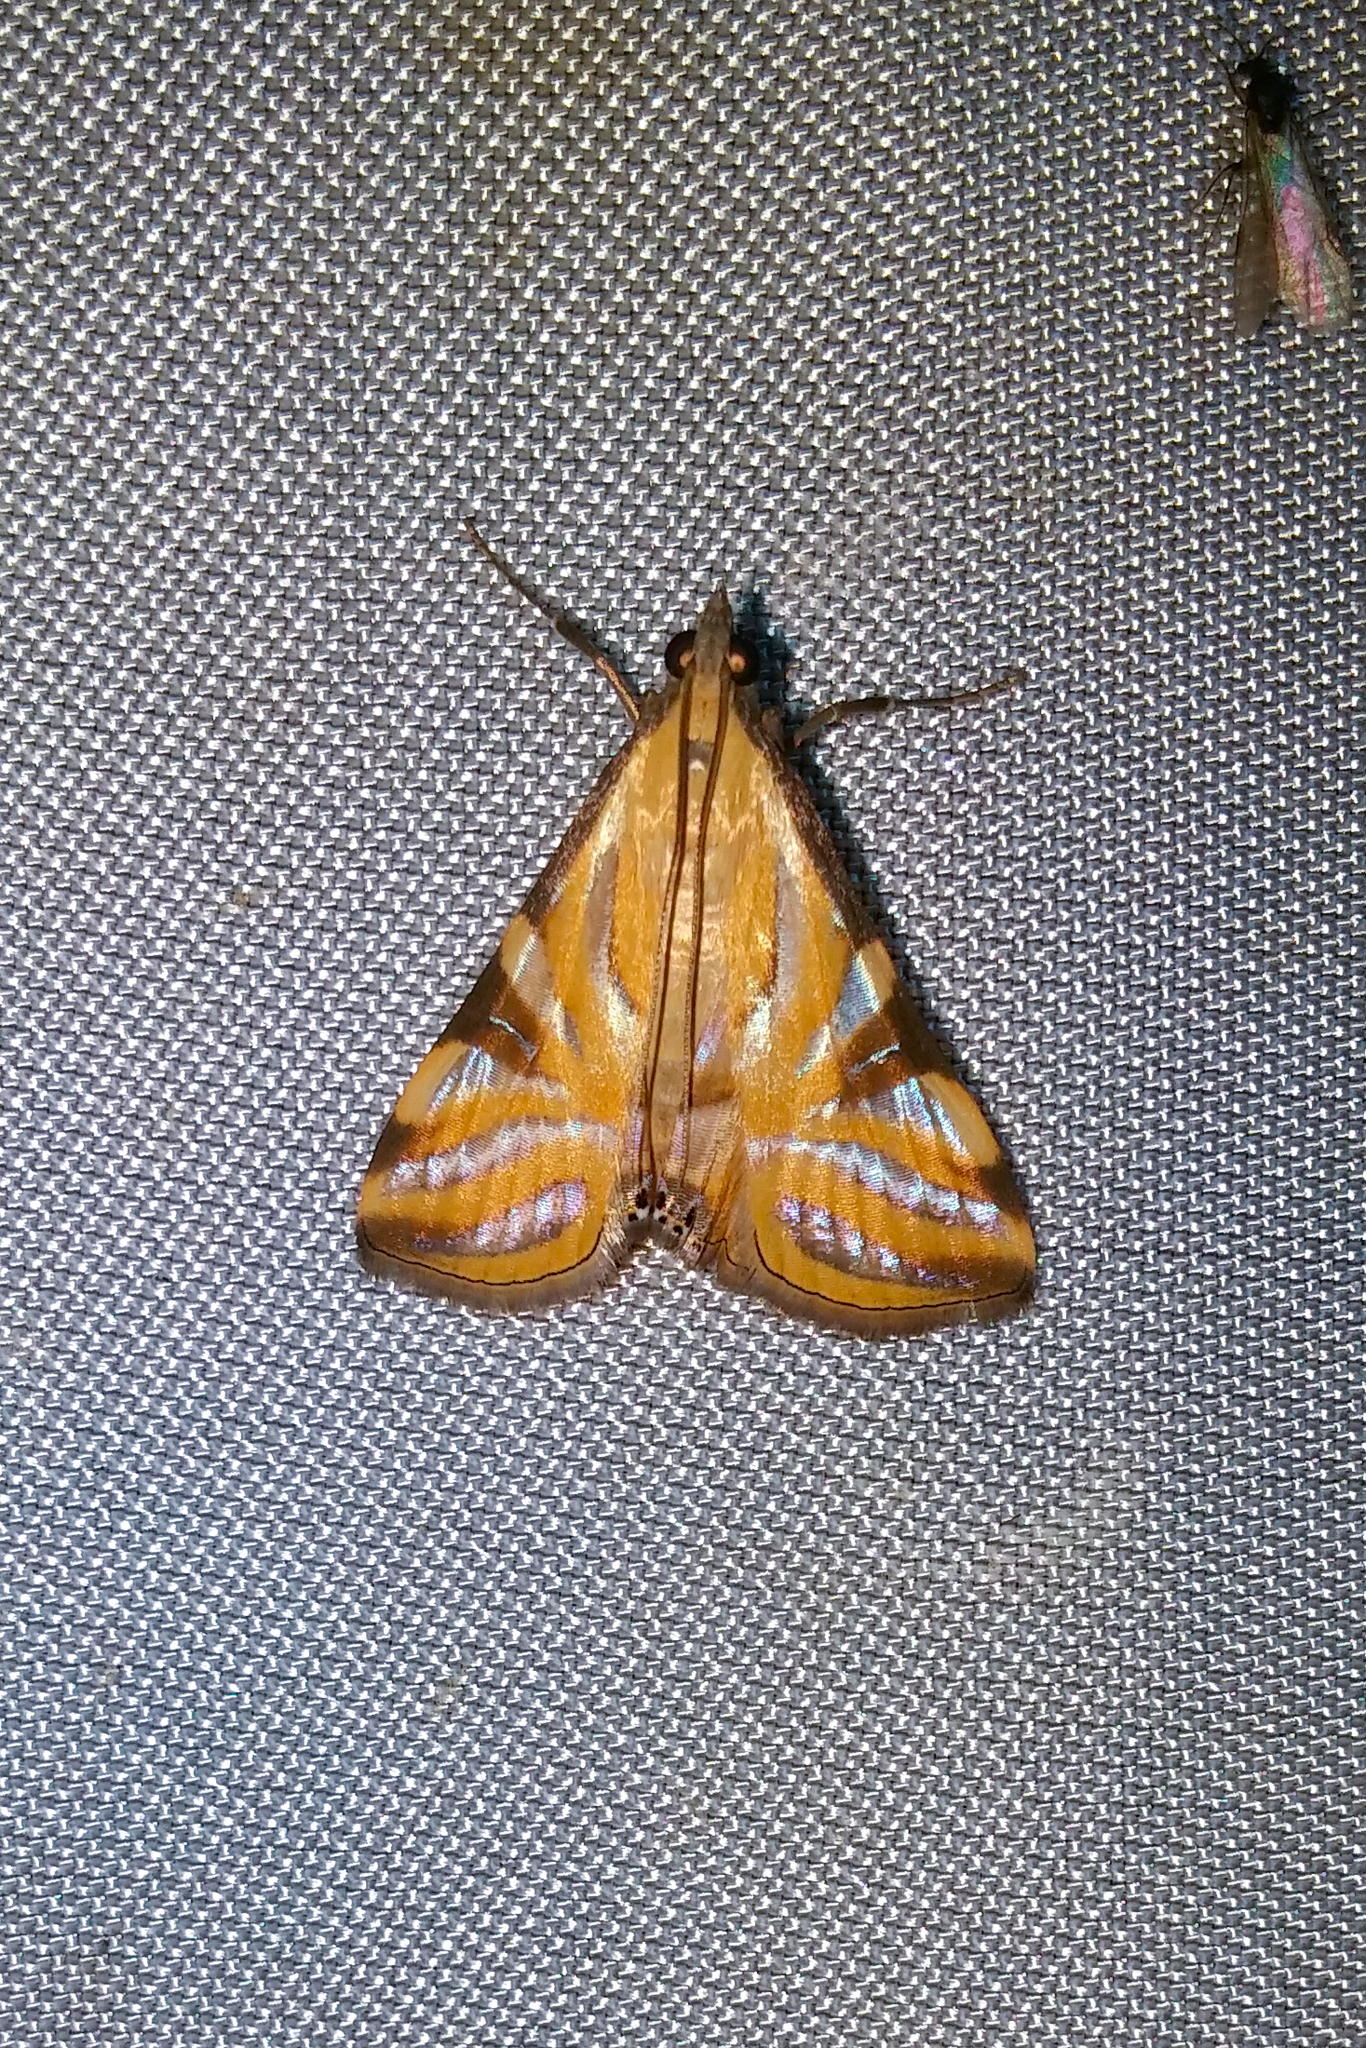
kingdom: Animalia
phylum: Arthropoda
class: Insecta
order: Lepidoptera
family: Crambidae
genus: Talanga
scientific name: Talanga tolumnialis
